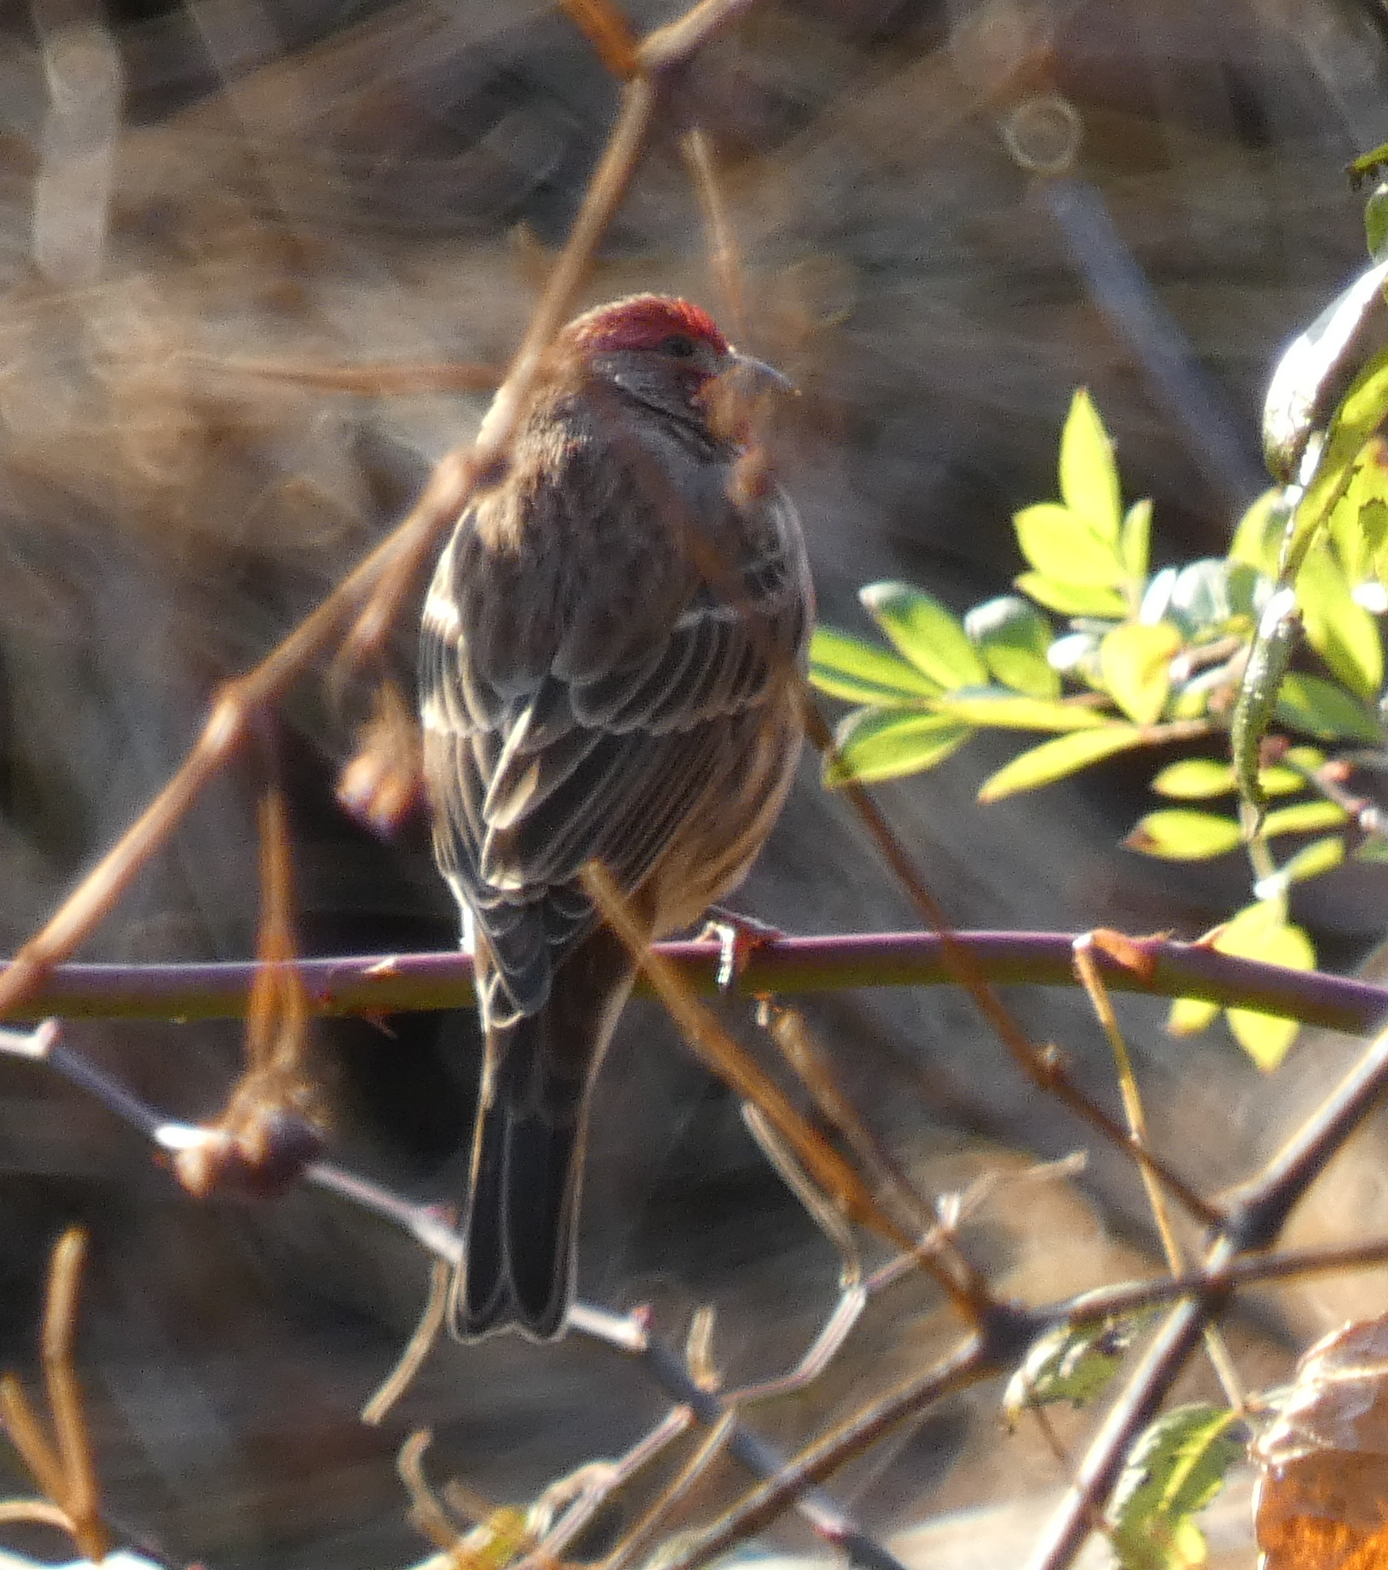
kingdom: Animalia
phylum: Chordata
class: Aves
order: Passeriformes
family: Fringillidae
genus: Haemorhous
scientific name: Haemorhous mexicanus
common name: House finch
